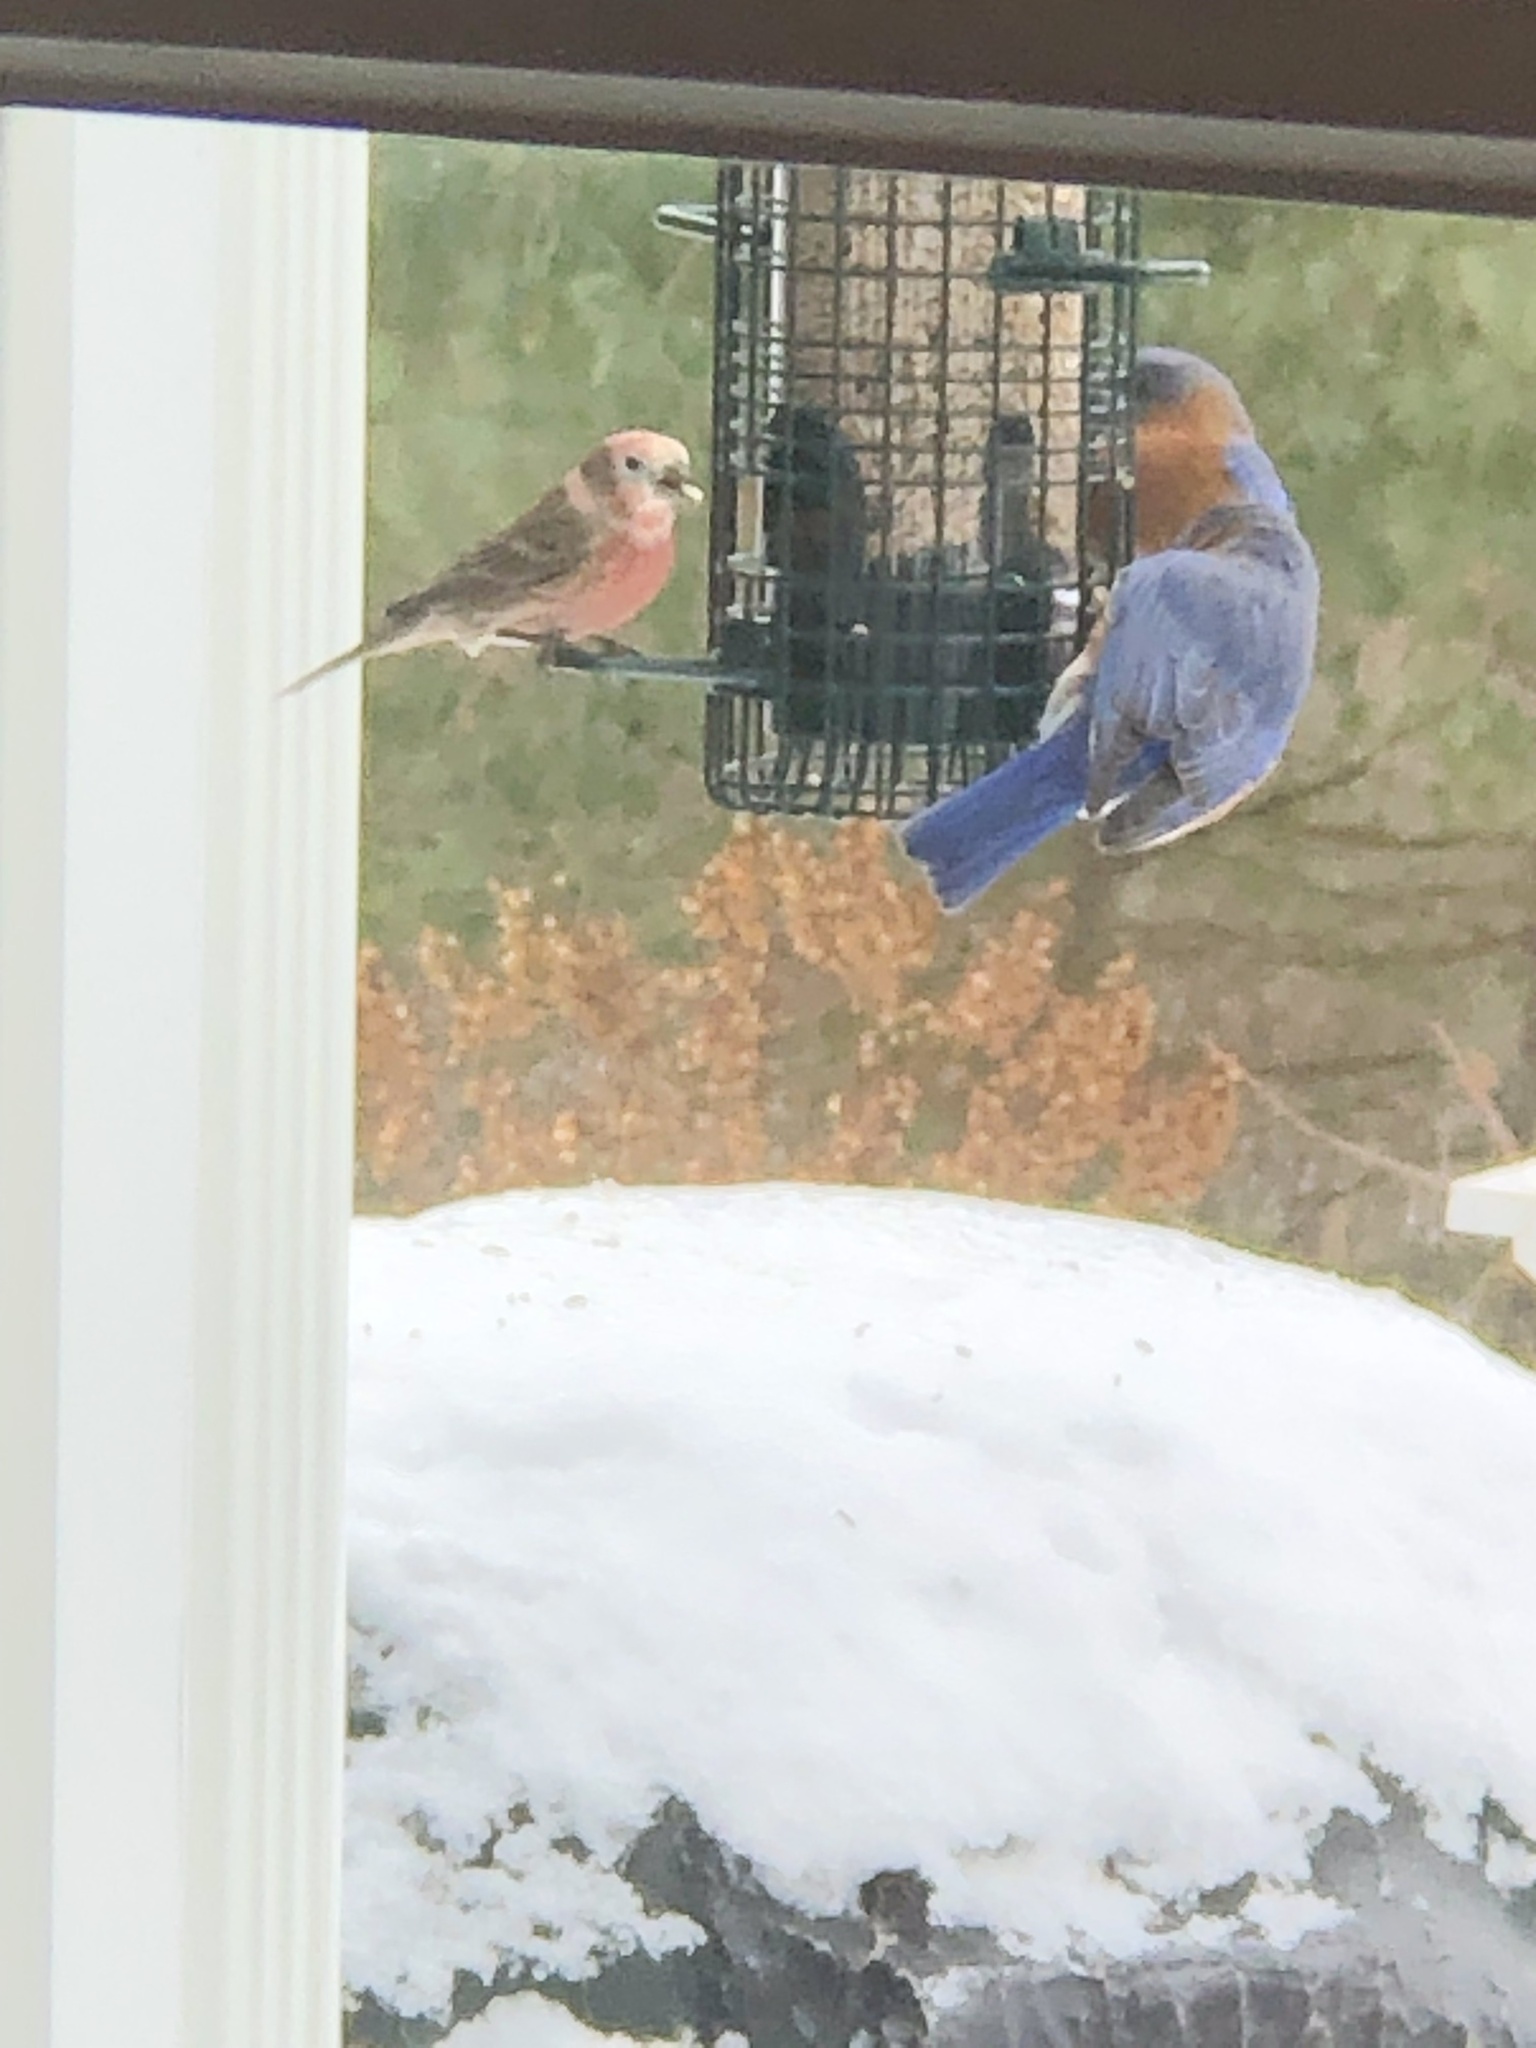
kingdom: Animalia
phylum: Chordata
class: Aves
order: Passeriformes
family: Turdidae
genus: Sialia
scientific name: Sialia sialis
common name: Eastern bluebird
